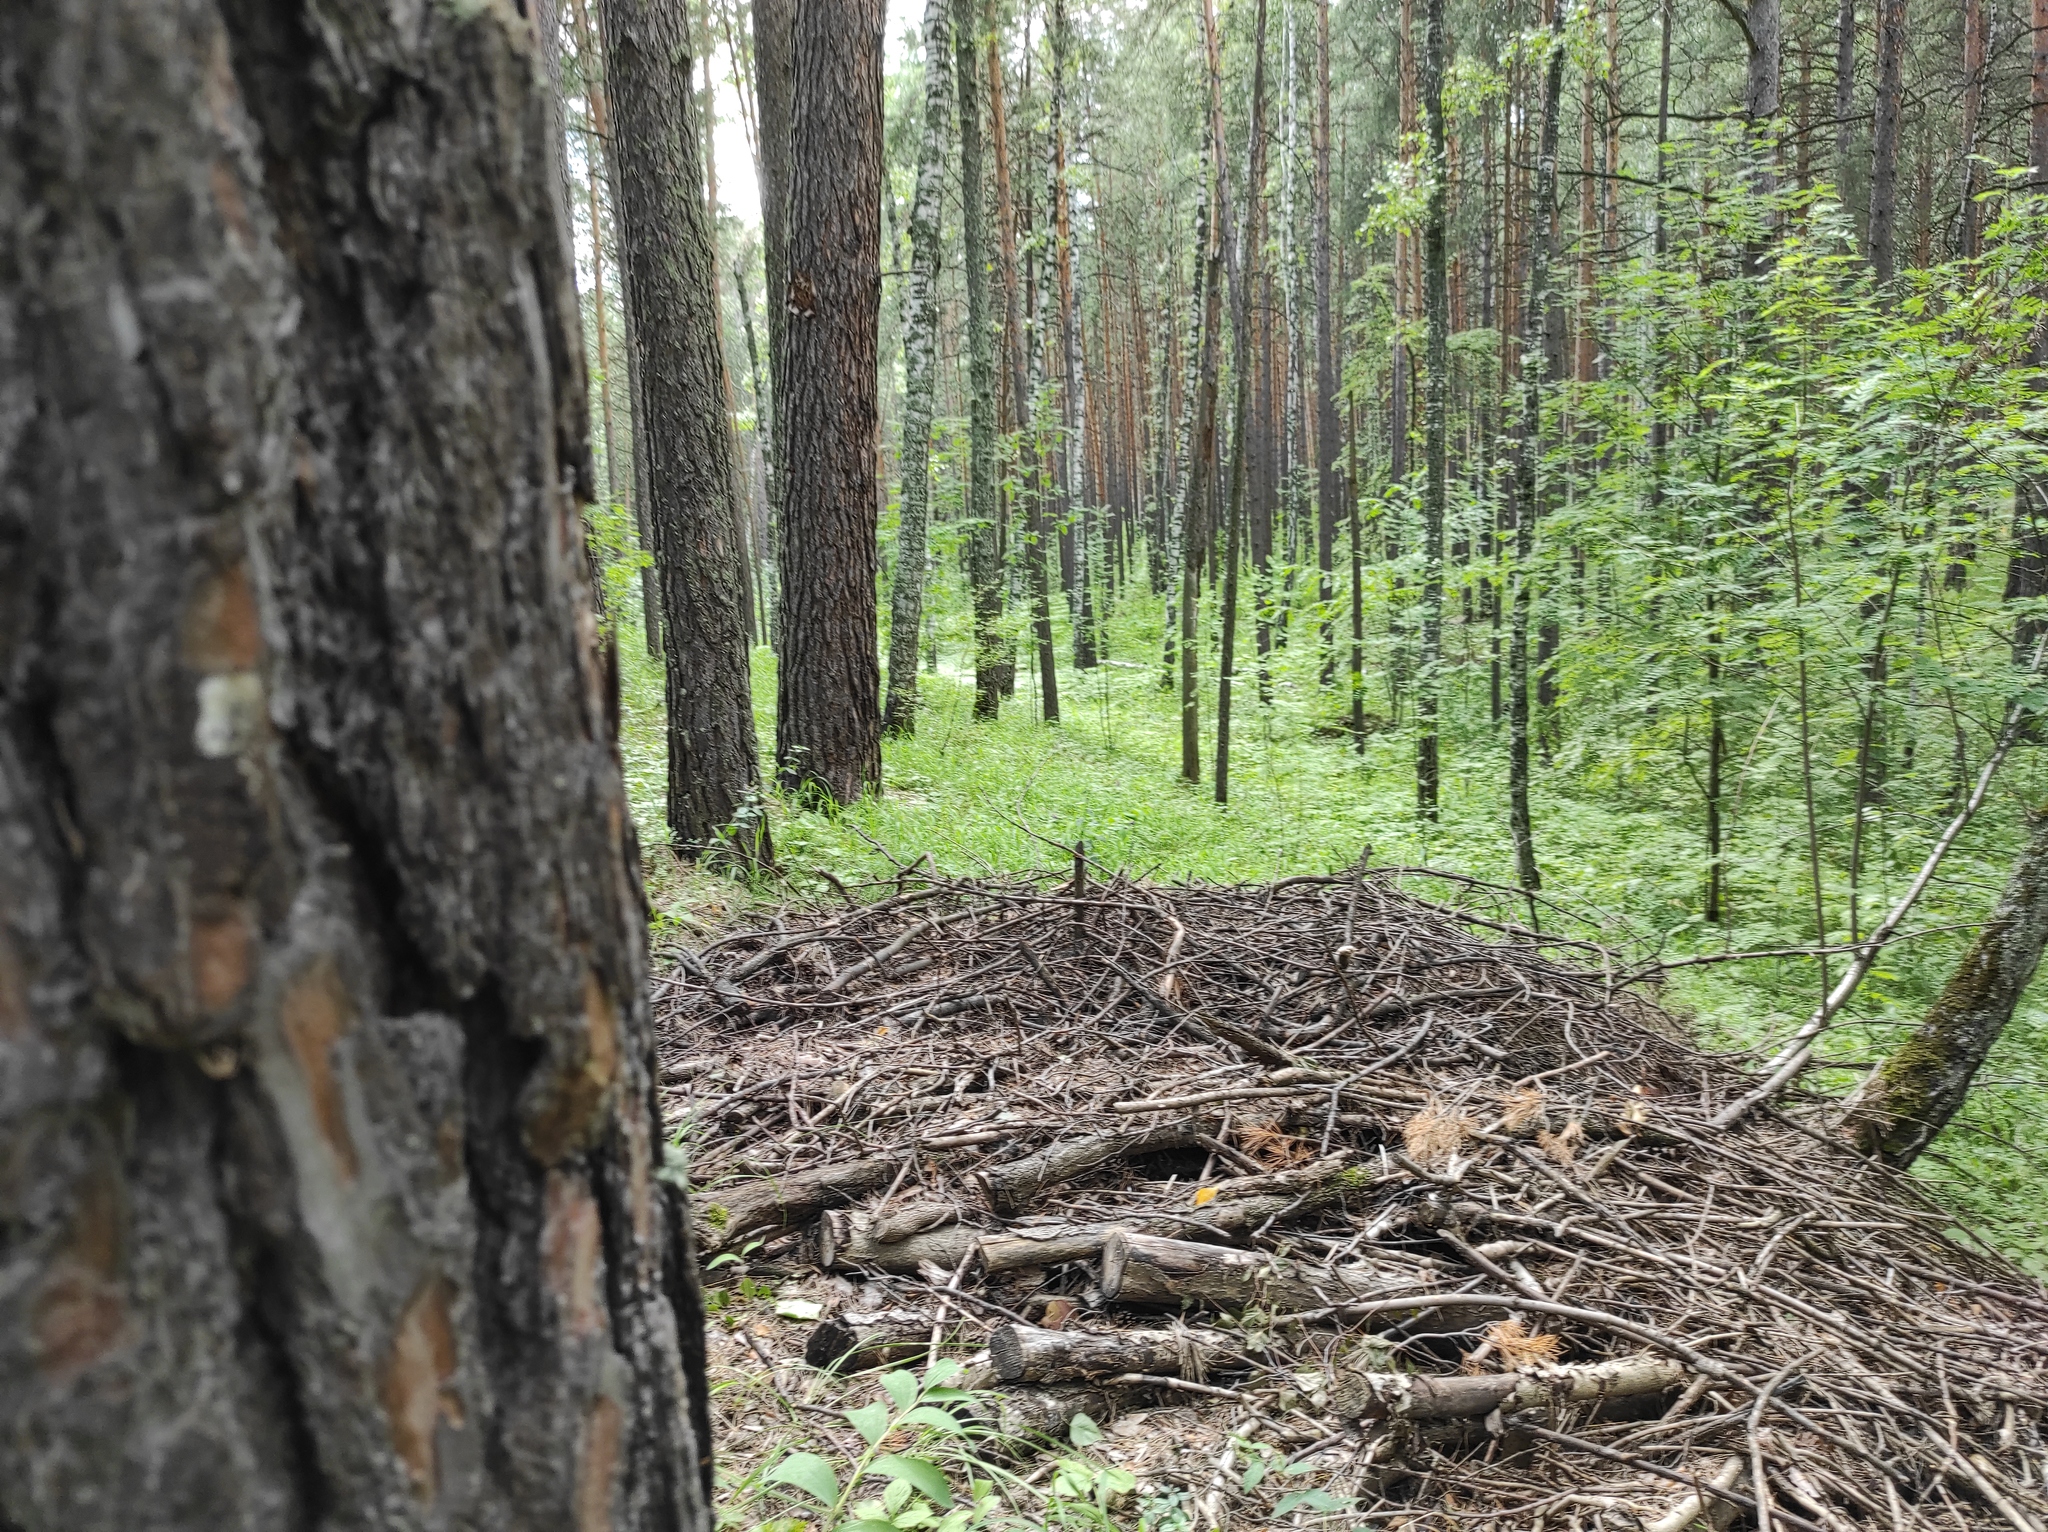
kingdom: Plantae
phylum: Tracheophyta
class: Pinopsida
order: Pinales
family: Pinaceae
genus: Pinus
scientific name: Pinus sylvestris
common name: Scots pine
